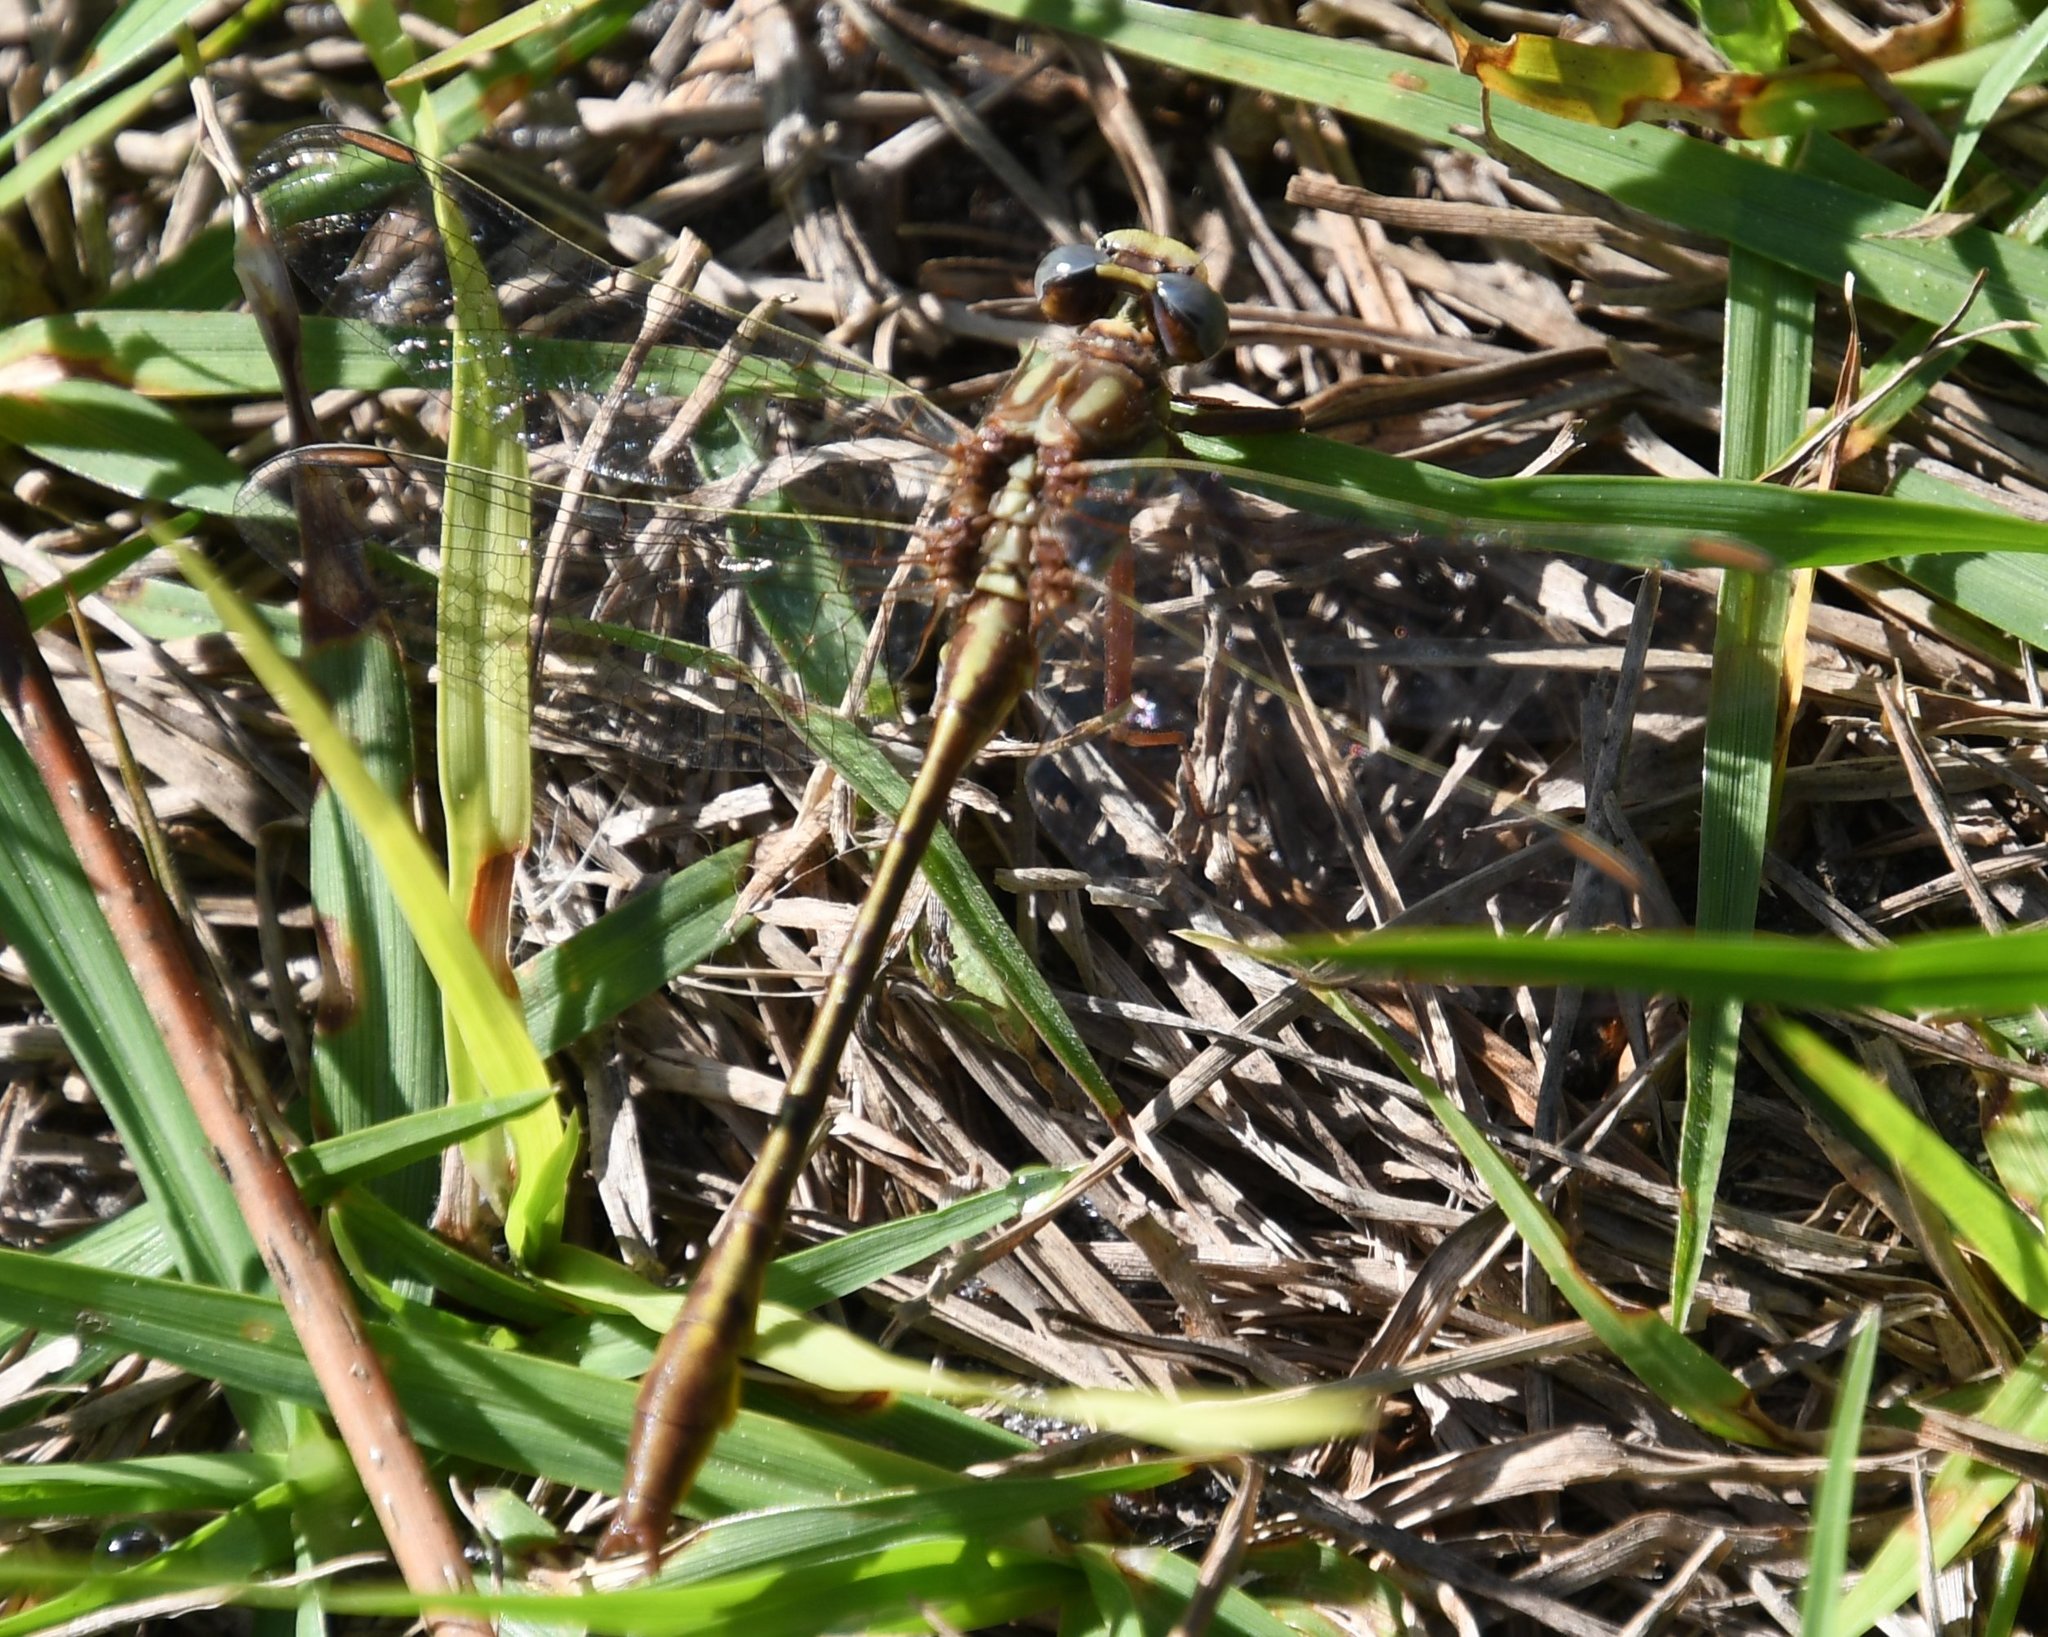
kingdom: Animalia
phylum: Arthropoda
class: Insecta
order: Odonata
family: Gomphidae
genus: Phanogomphus
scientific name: Phanogomphus minutus
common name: Cypress clubtail
